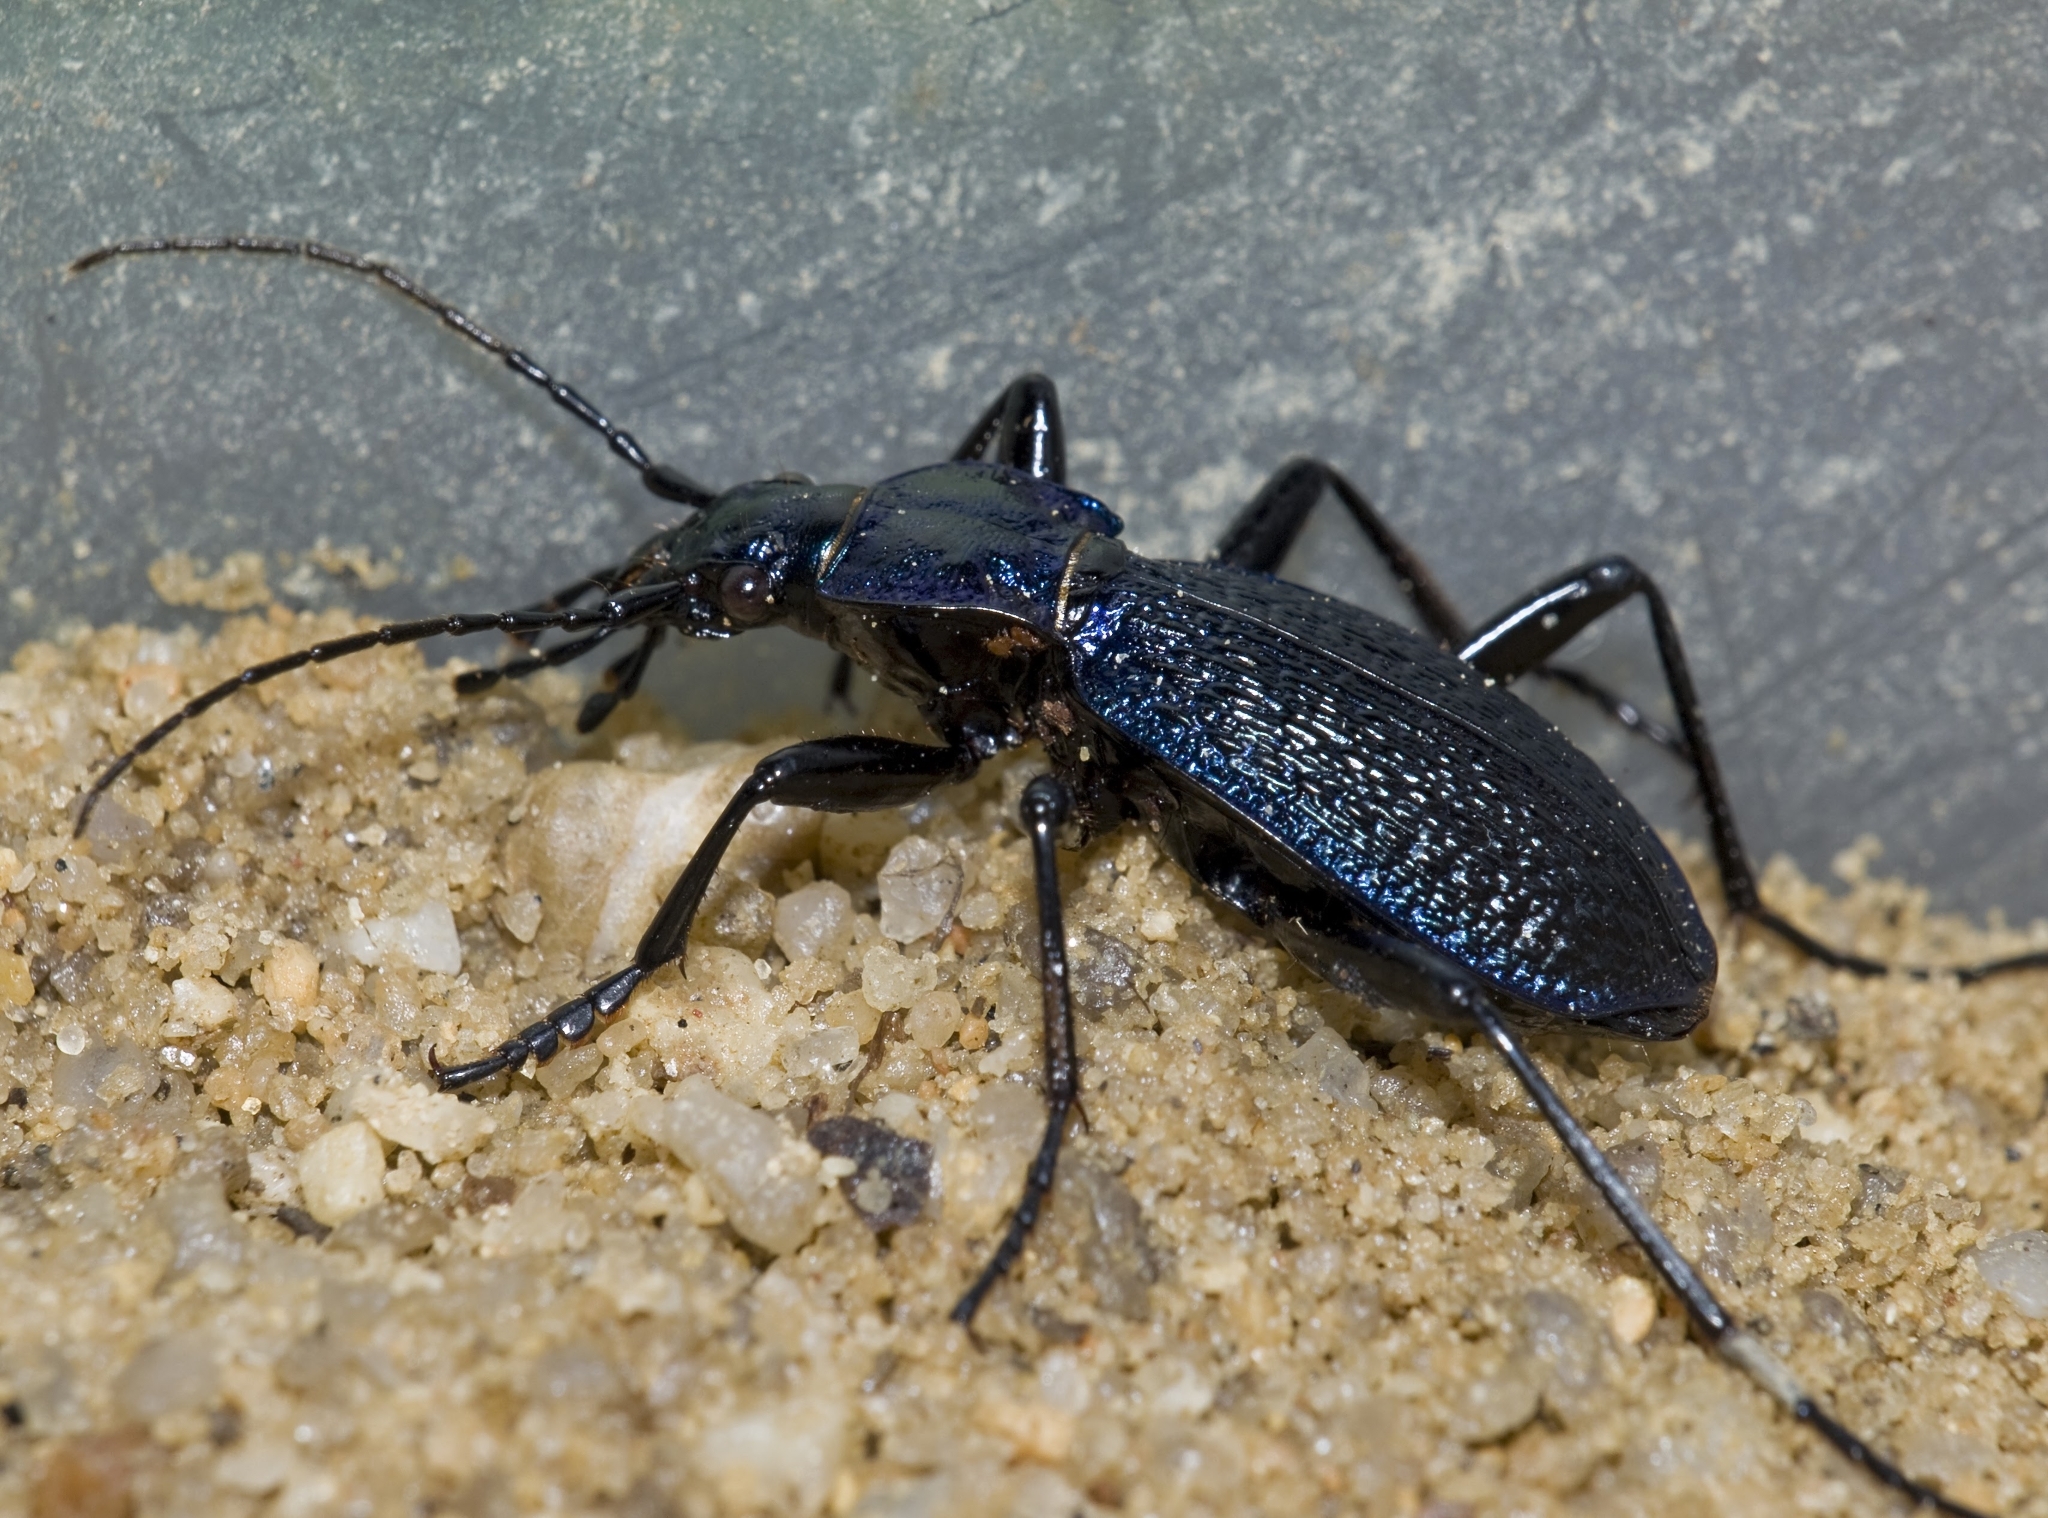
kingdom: Animalia
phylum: Arthropoda
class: Insecta
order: Coleoptera
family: Carabidae
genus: Carabus
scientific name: Carabus intricatus
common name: Blue ground beetle
